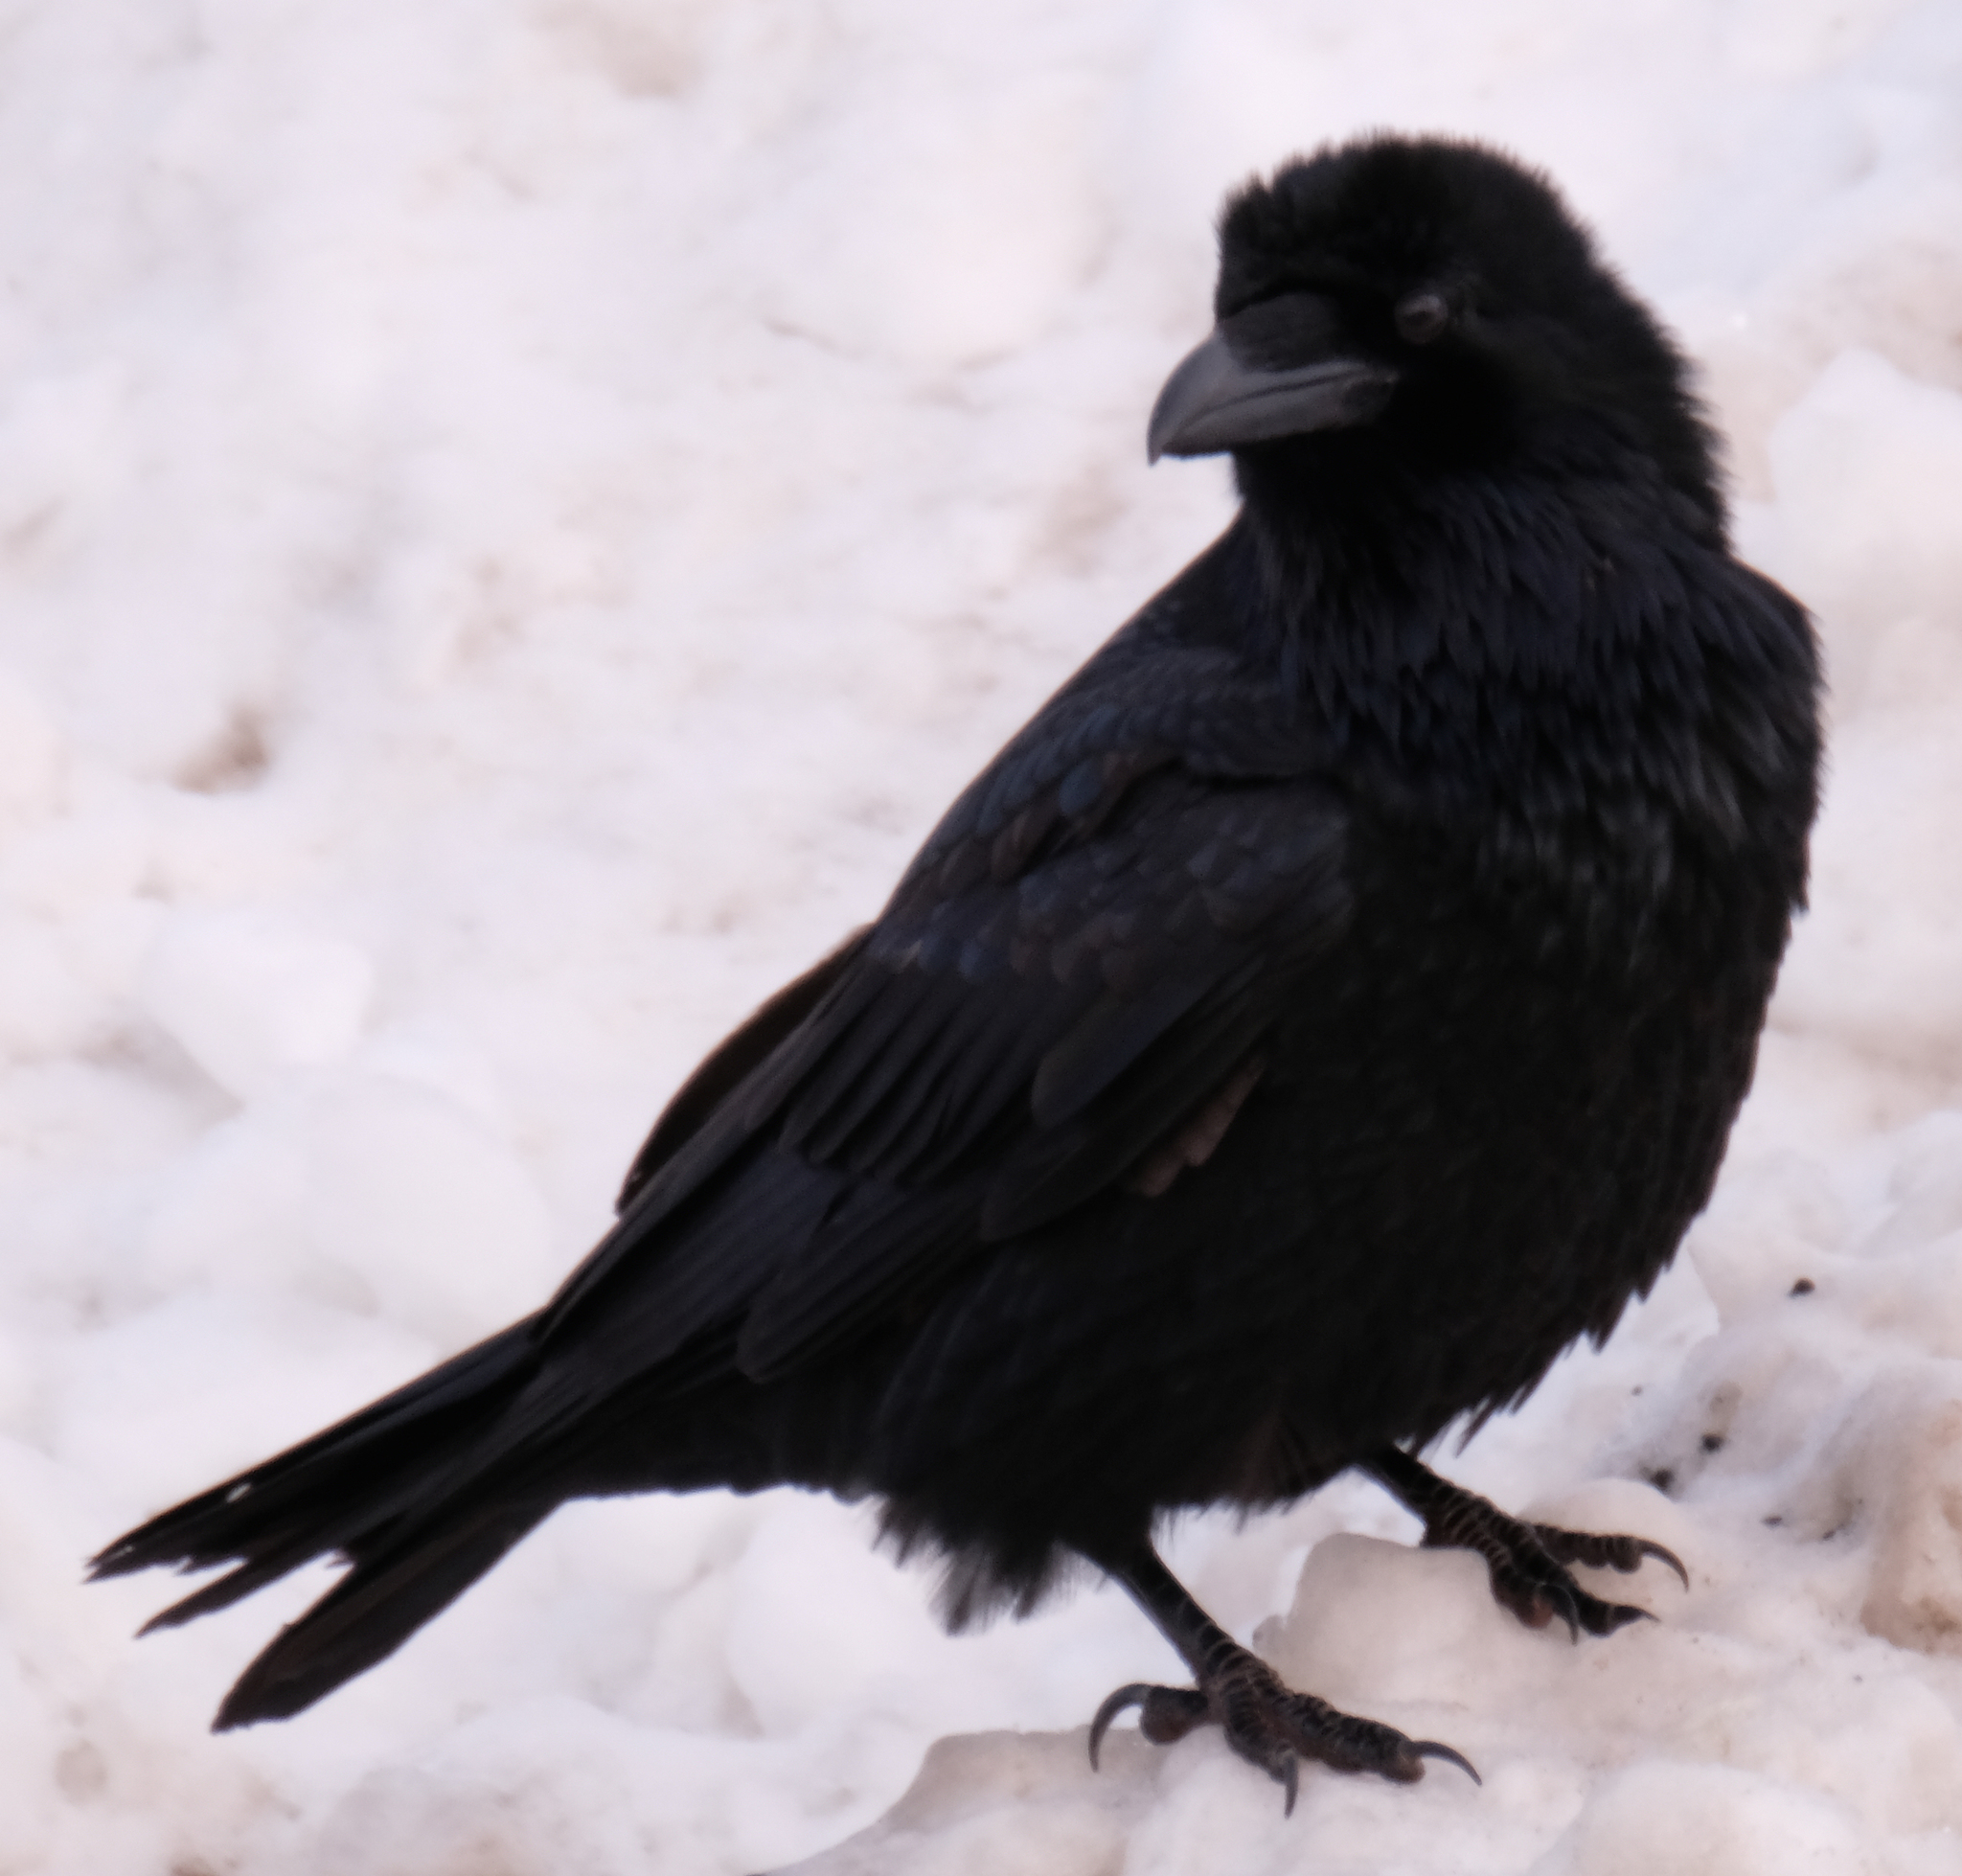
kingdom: Animalia
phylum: Chordata
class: Aves
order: Passeriformes
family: Corvidae
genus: Corvus
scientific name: Corvus corax
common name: Common raven
